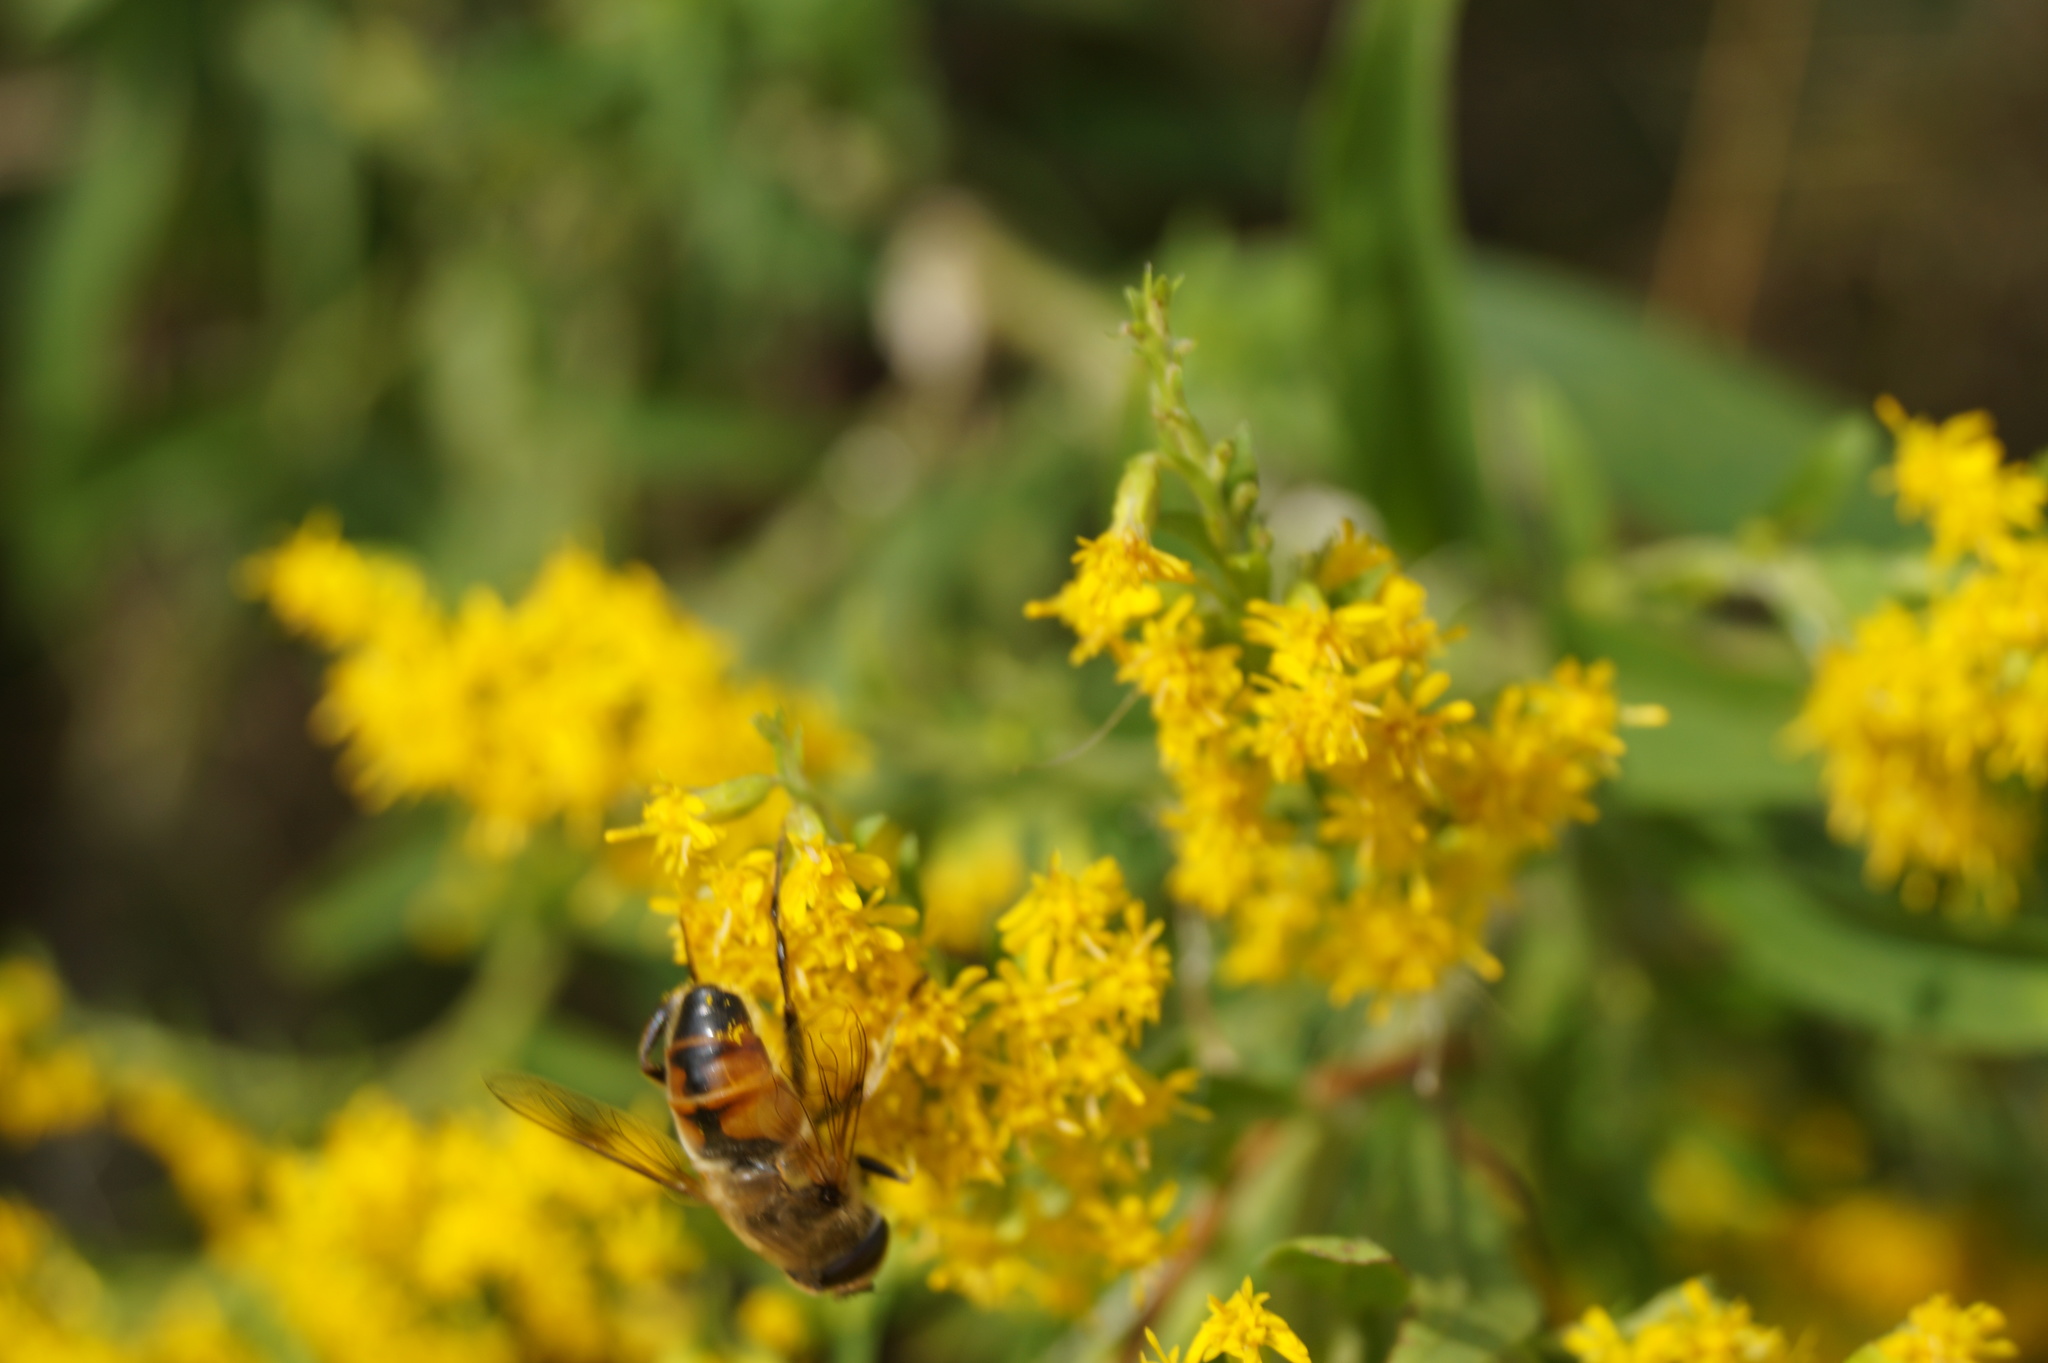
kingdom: Animalia
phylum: Arthropoda
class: Insecta
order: Diptera
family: Syrphidae
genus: Eristalis
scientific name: Eristalis tenax
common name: Drone fly
